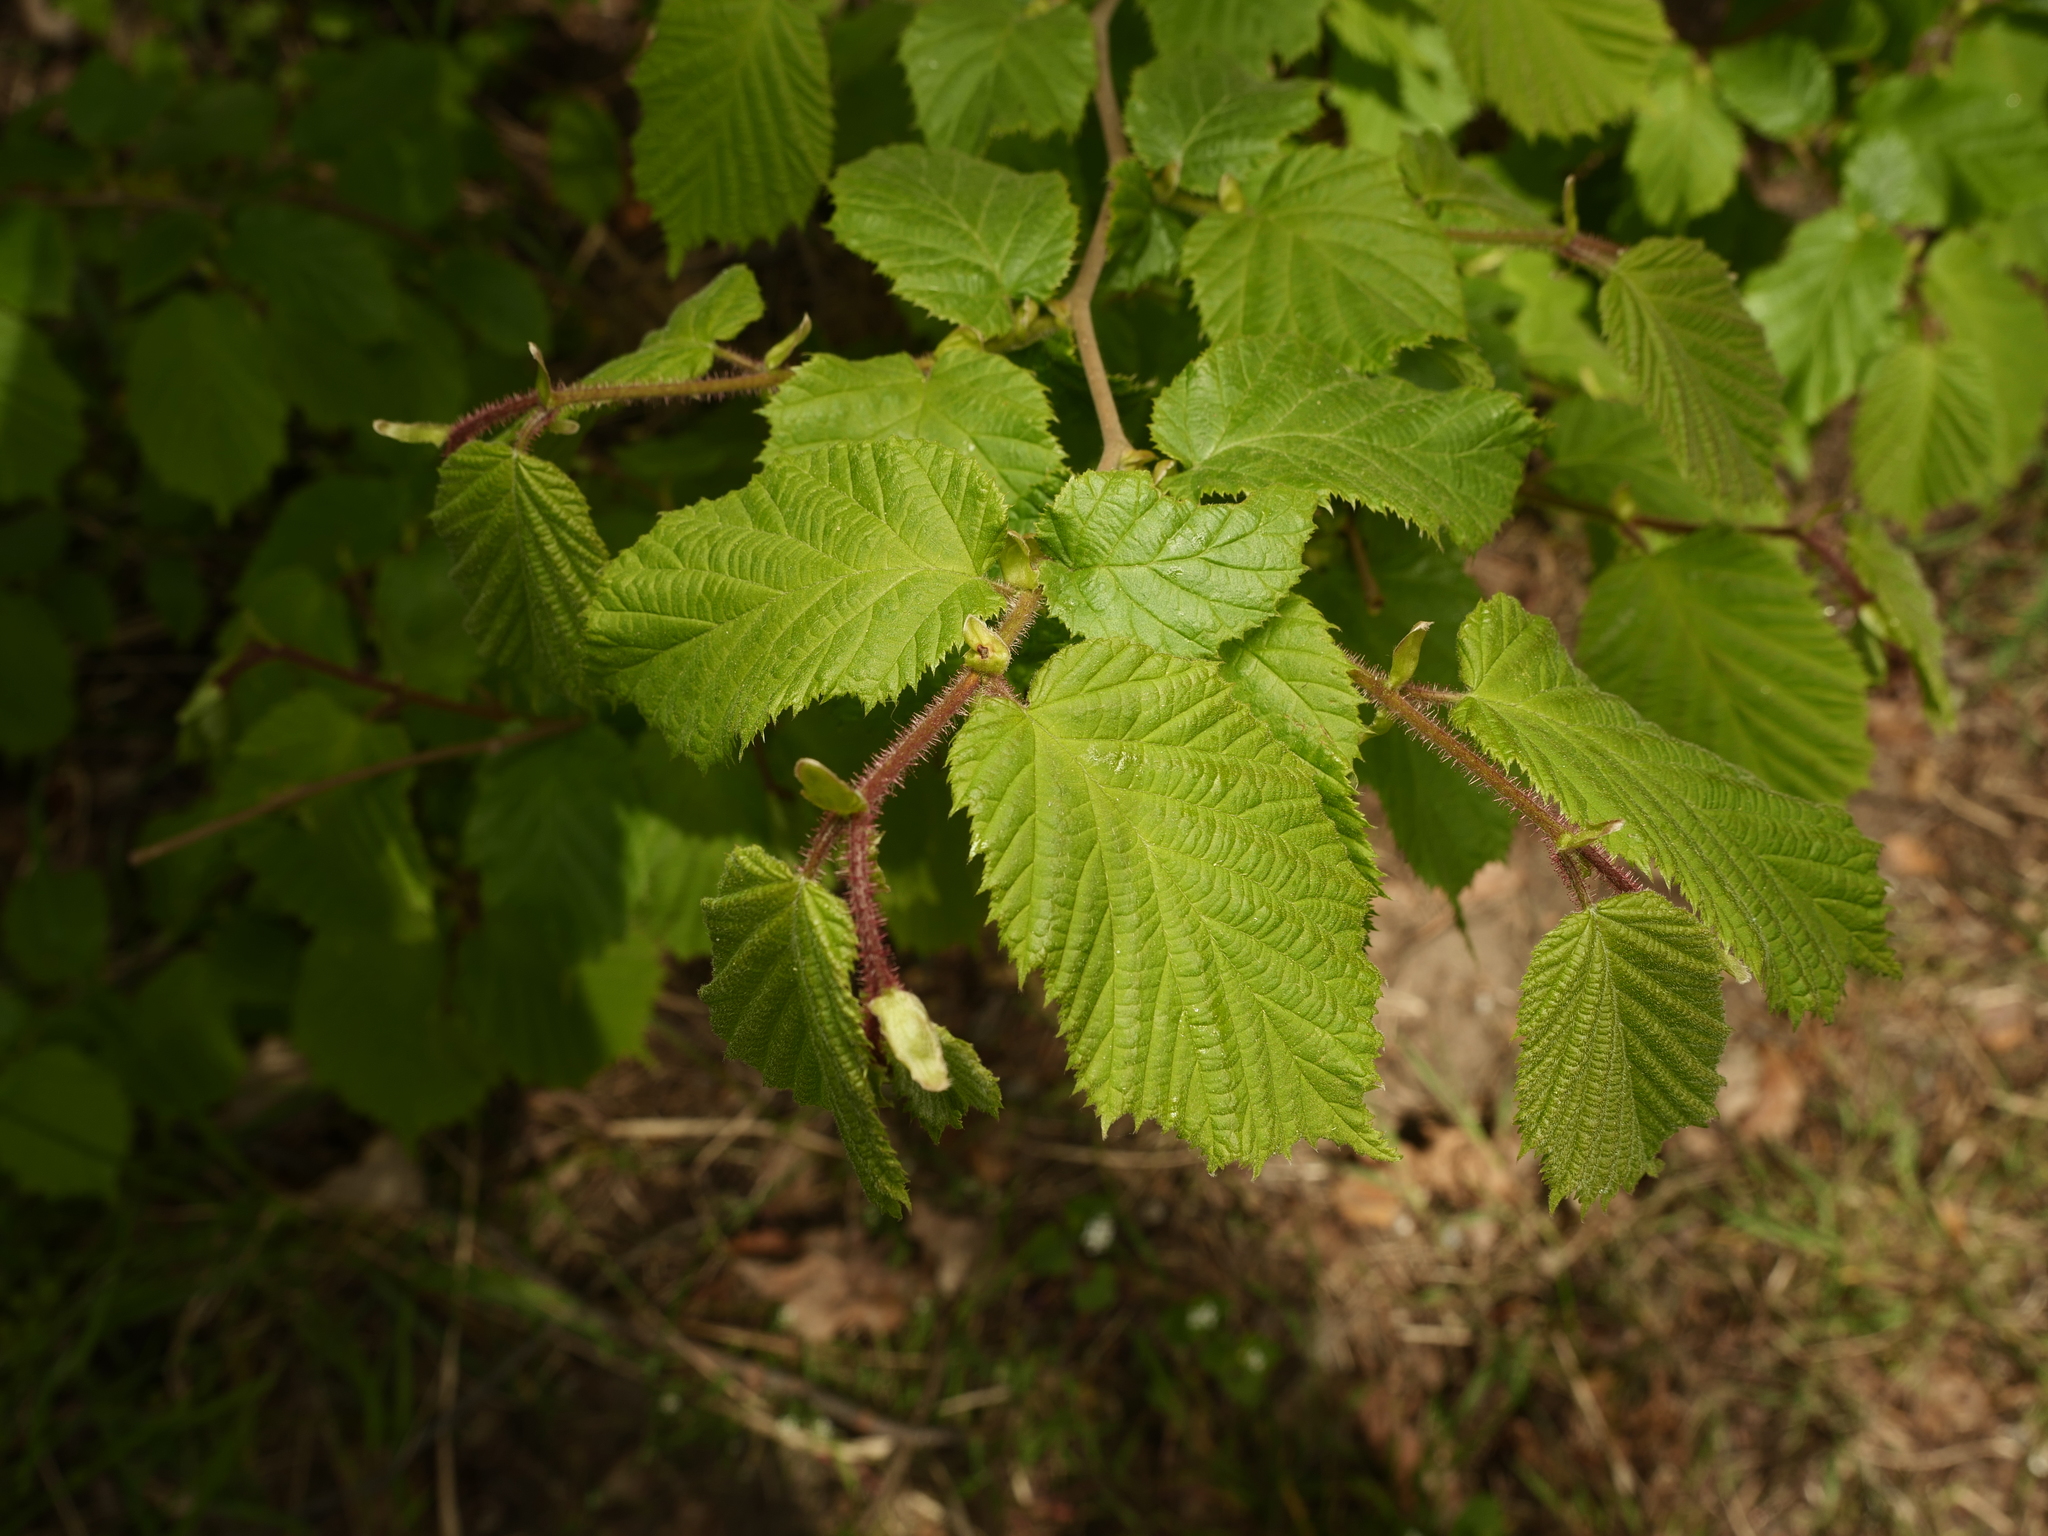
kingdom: Plantae
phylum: Tracheophyta
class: Magnoliopsida
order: Fagales
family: Betulaceae
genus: Corylus
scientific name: Corylus avellana
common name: European hazel
